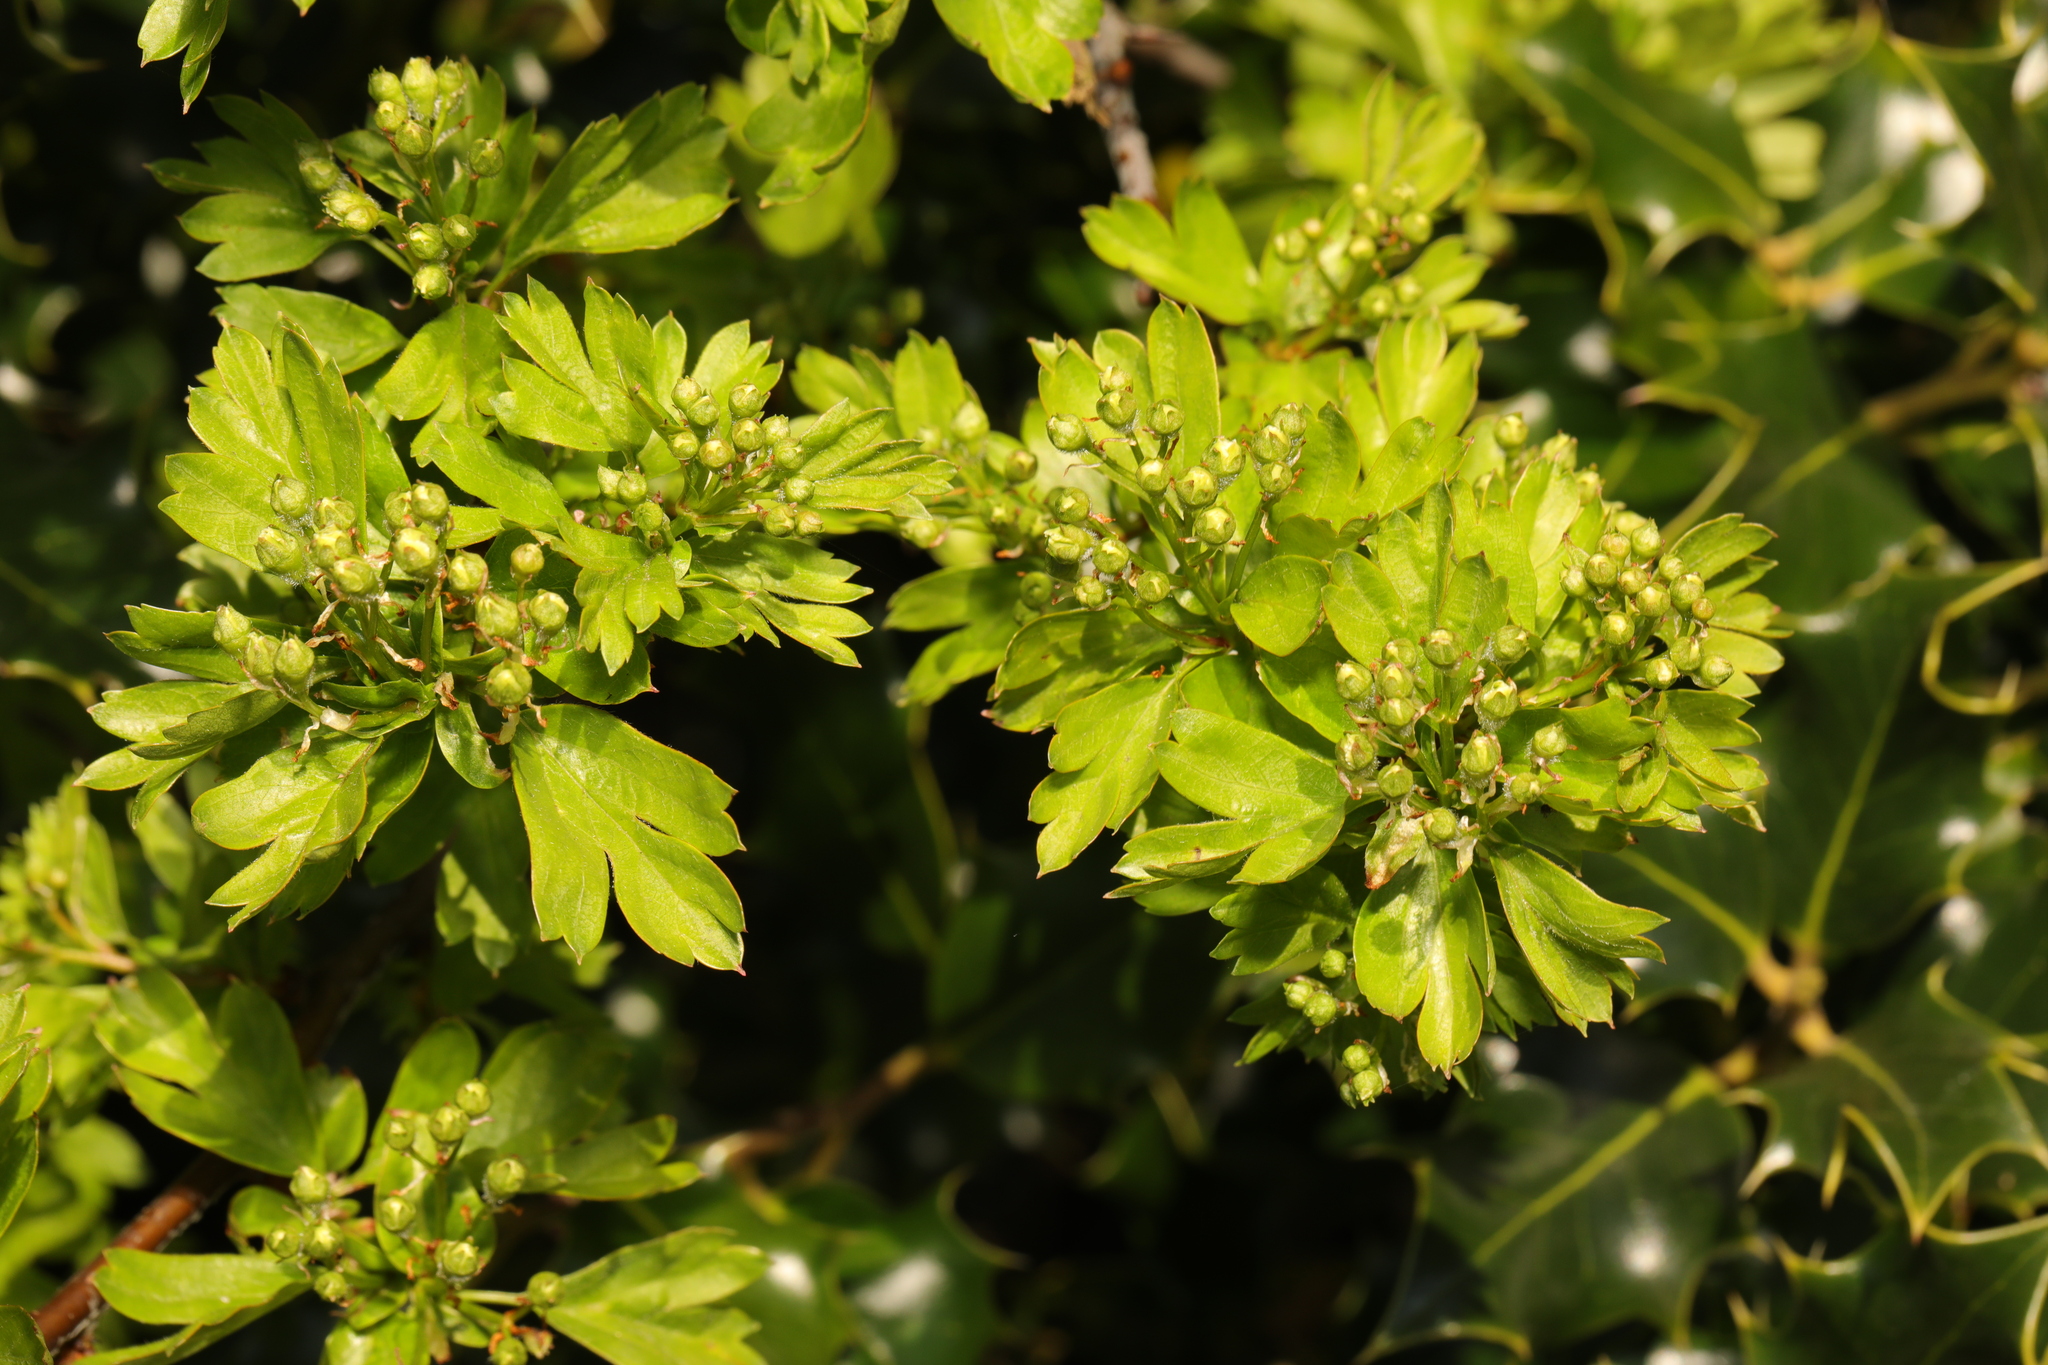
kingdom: Plantae
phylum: Tracheophyta
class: Magnoliopsida
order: Rosales
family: Rosaceae
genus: Crataegus
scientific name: Crataegus monogyna
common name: Hawthorn
